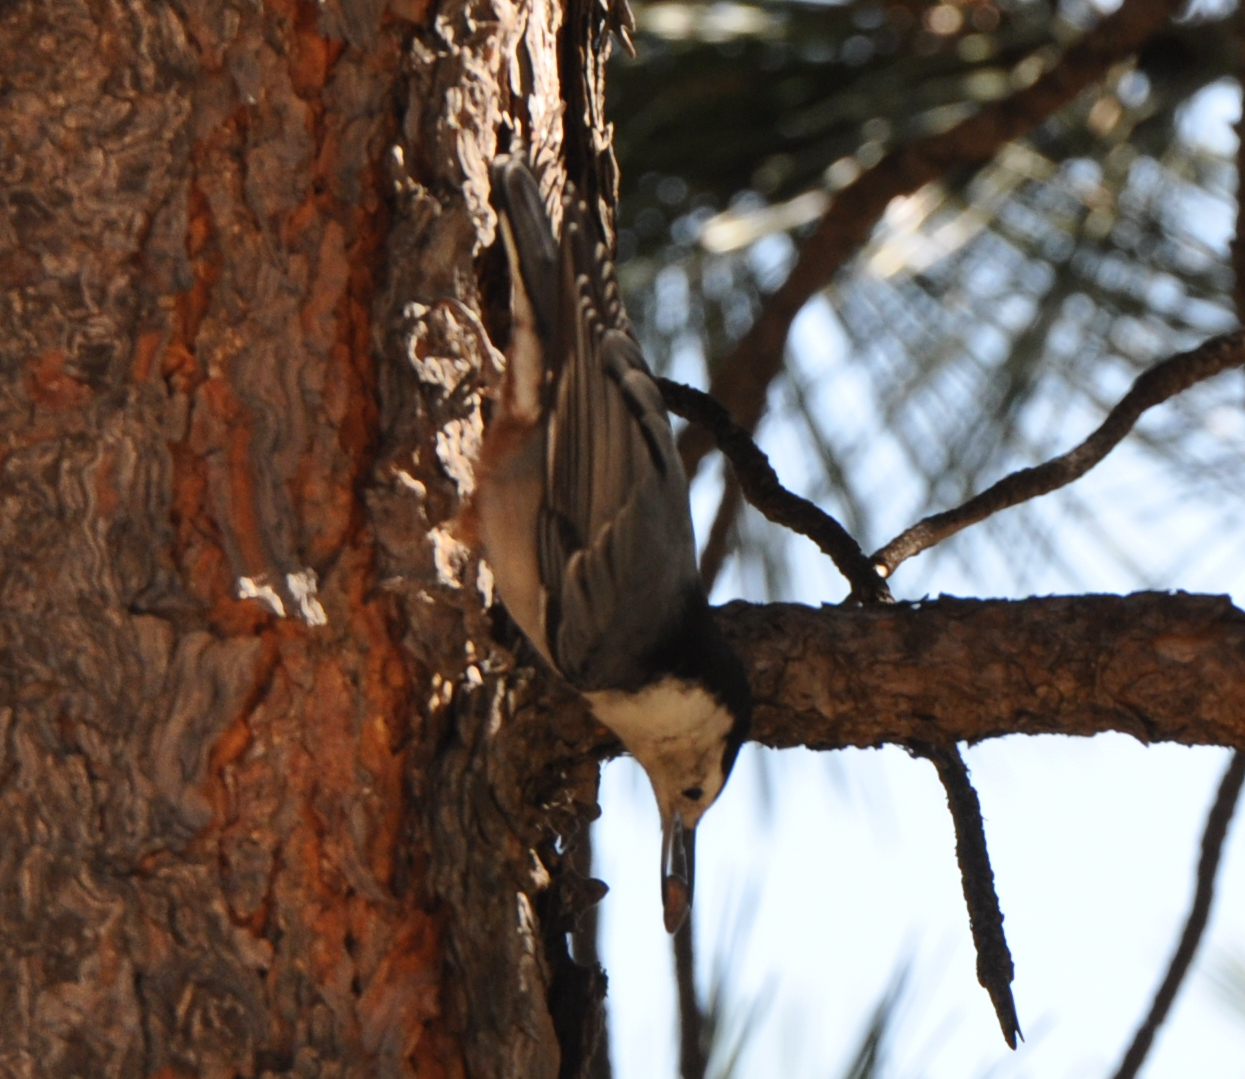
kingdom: Animalia
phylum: Chordata
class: Aves
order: Passeriformes
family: Sittidae
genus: Sitta
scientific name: Sitta carolinensis
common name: White-breasted nuthatch
